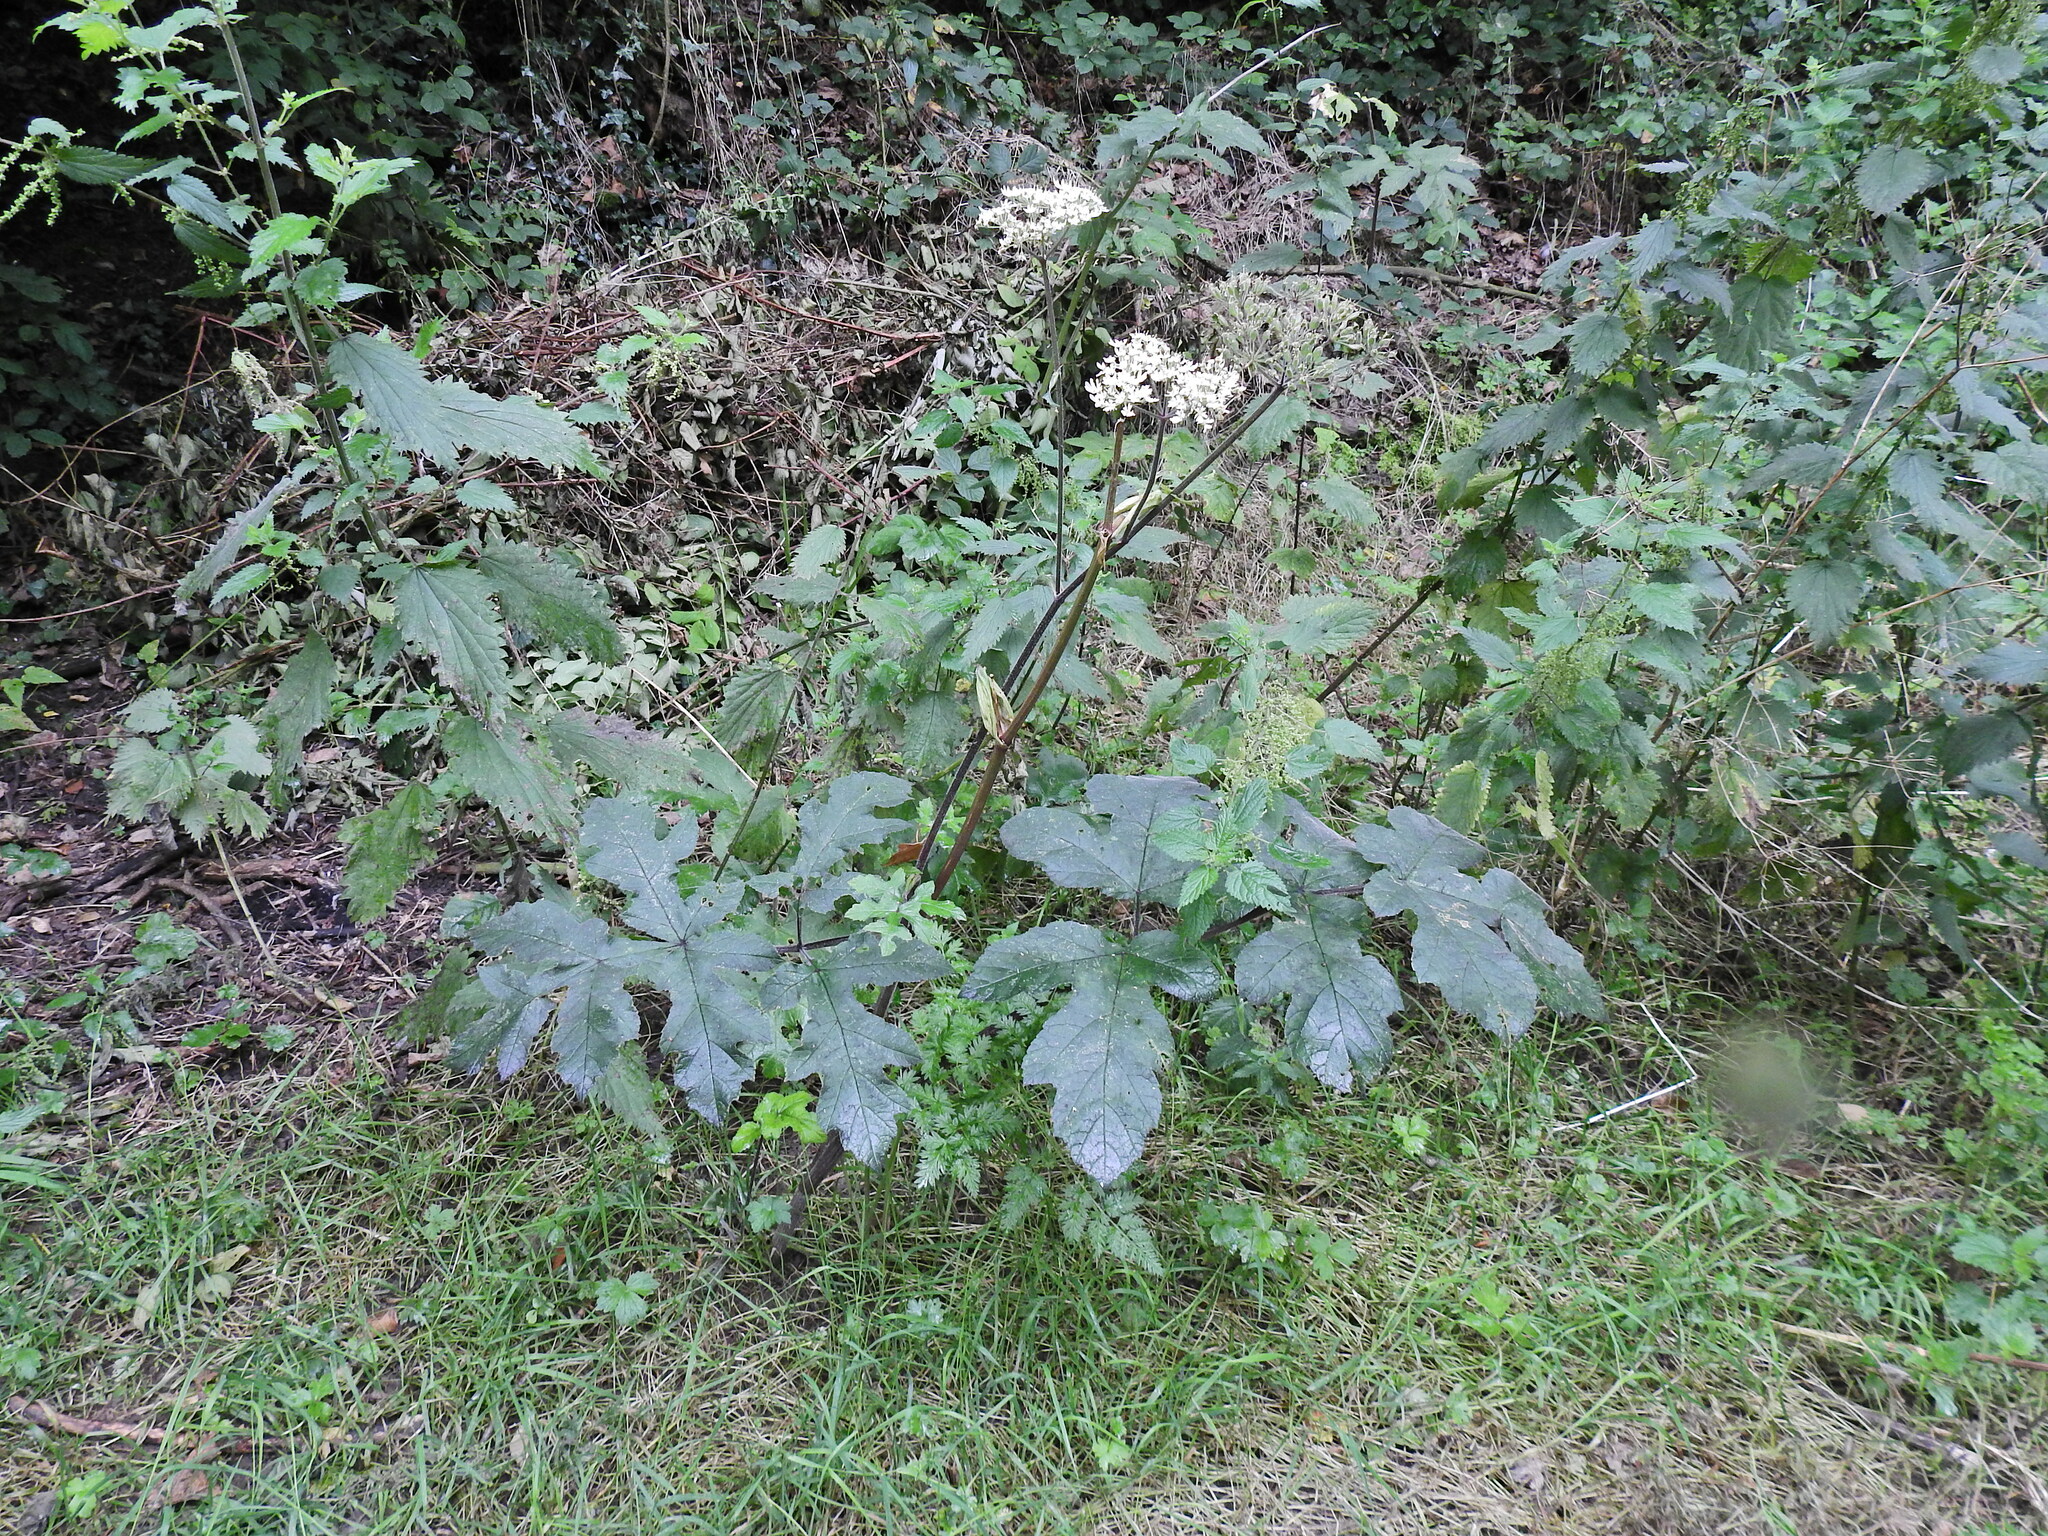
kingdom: Plantae
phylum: Tracheophyta
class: Magnoliopsida
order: Apiales
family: Apiaceae
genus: Heracleum
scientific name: Heracleum sphondylium
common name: Hogweed
